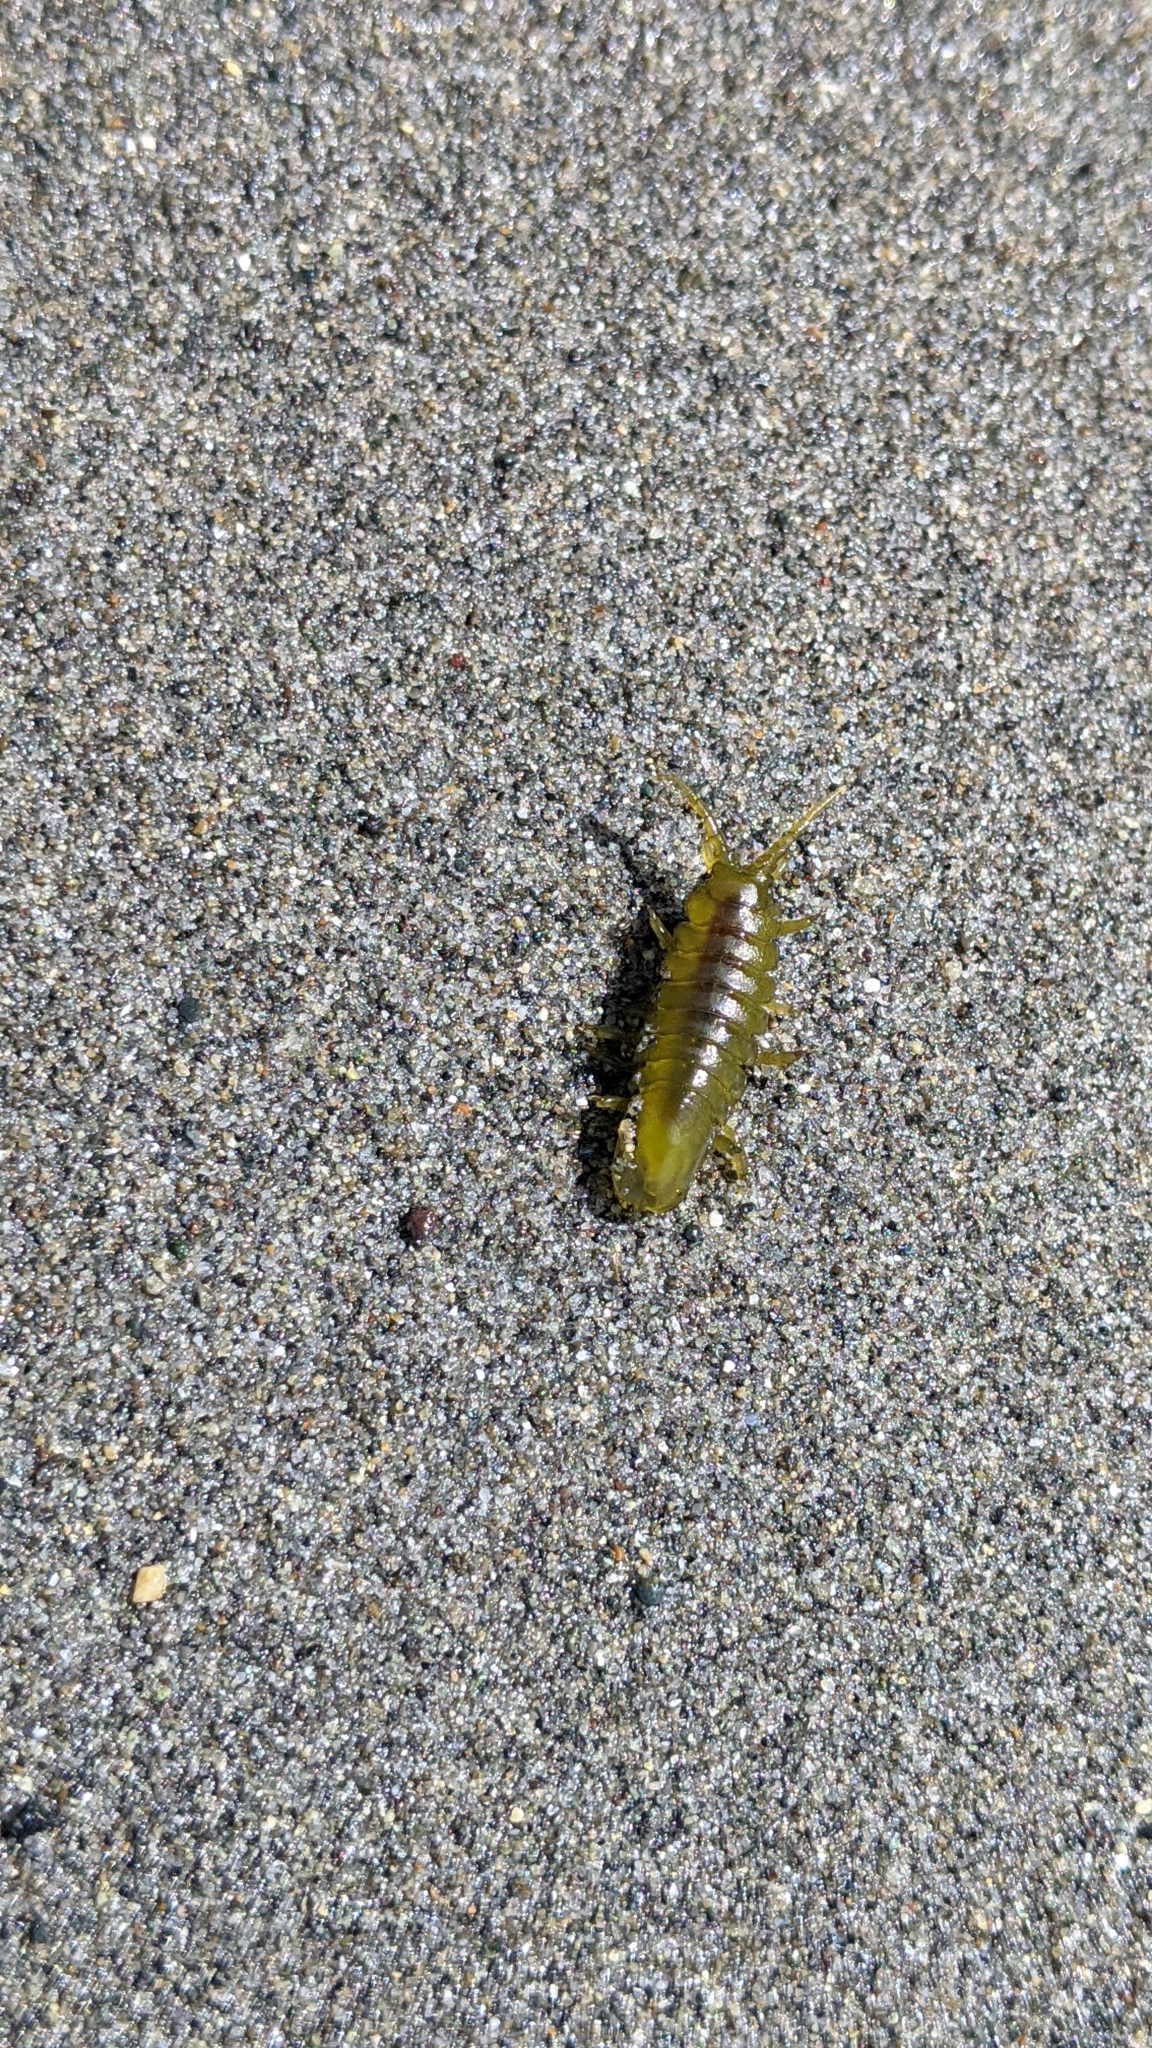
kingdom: Animalia
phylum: Arthropoda
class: Malacostraca
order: Isopoda
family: Idoteidae
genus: Pentidotea
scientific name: Pentidotea wosnesenskii
